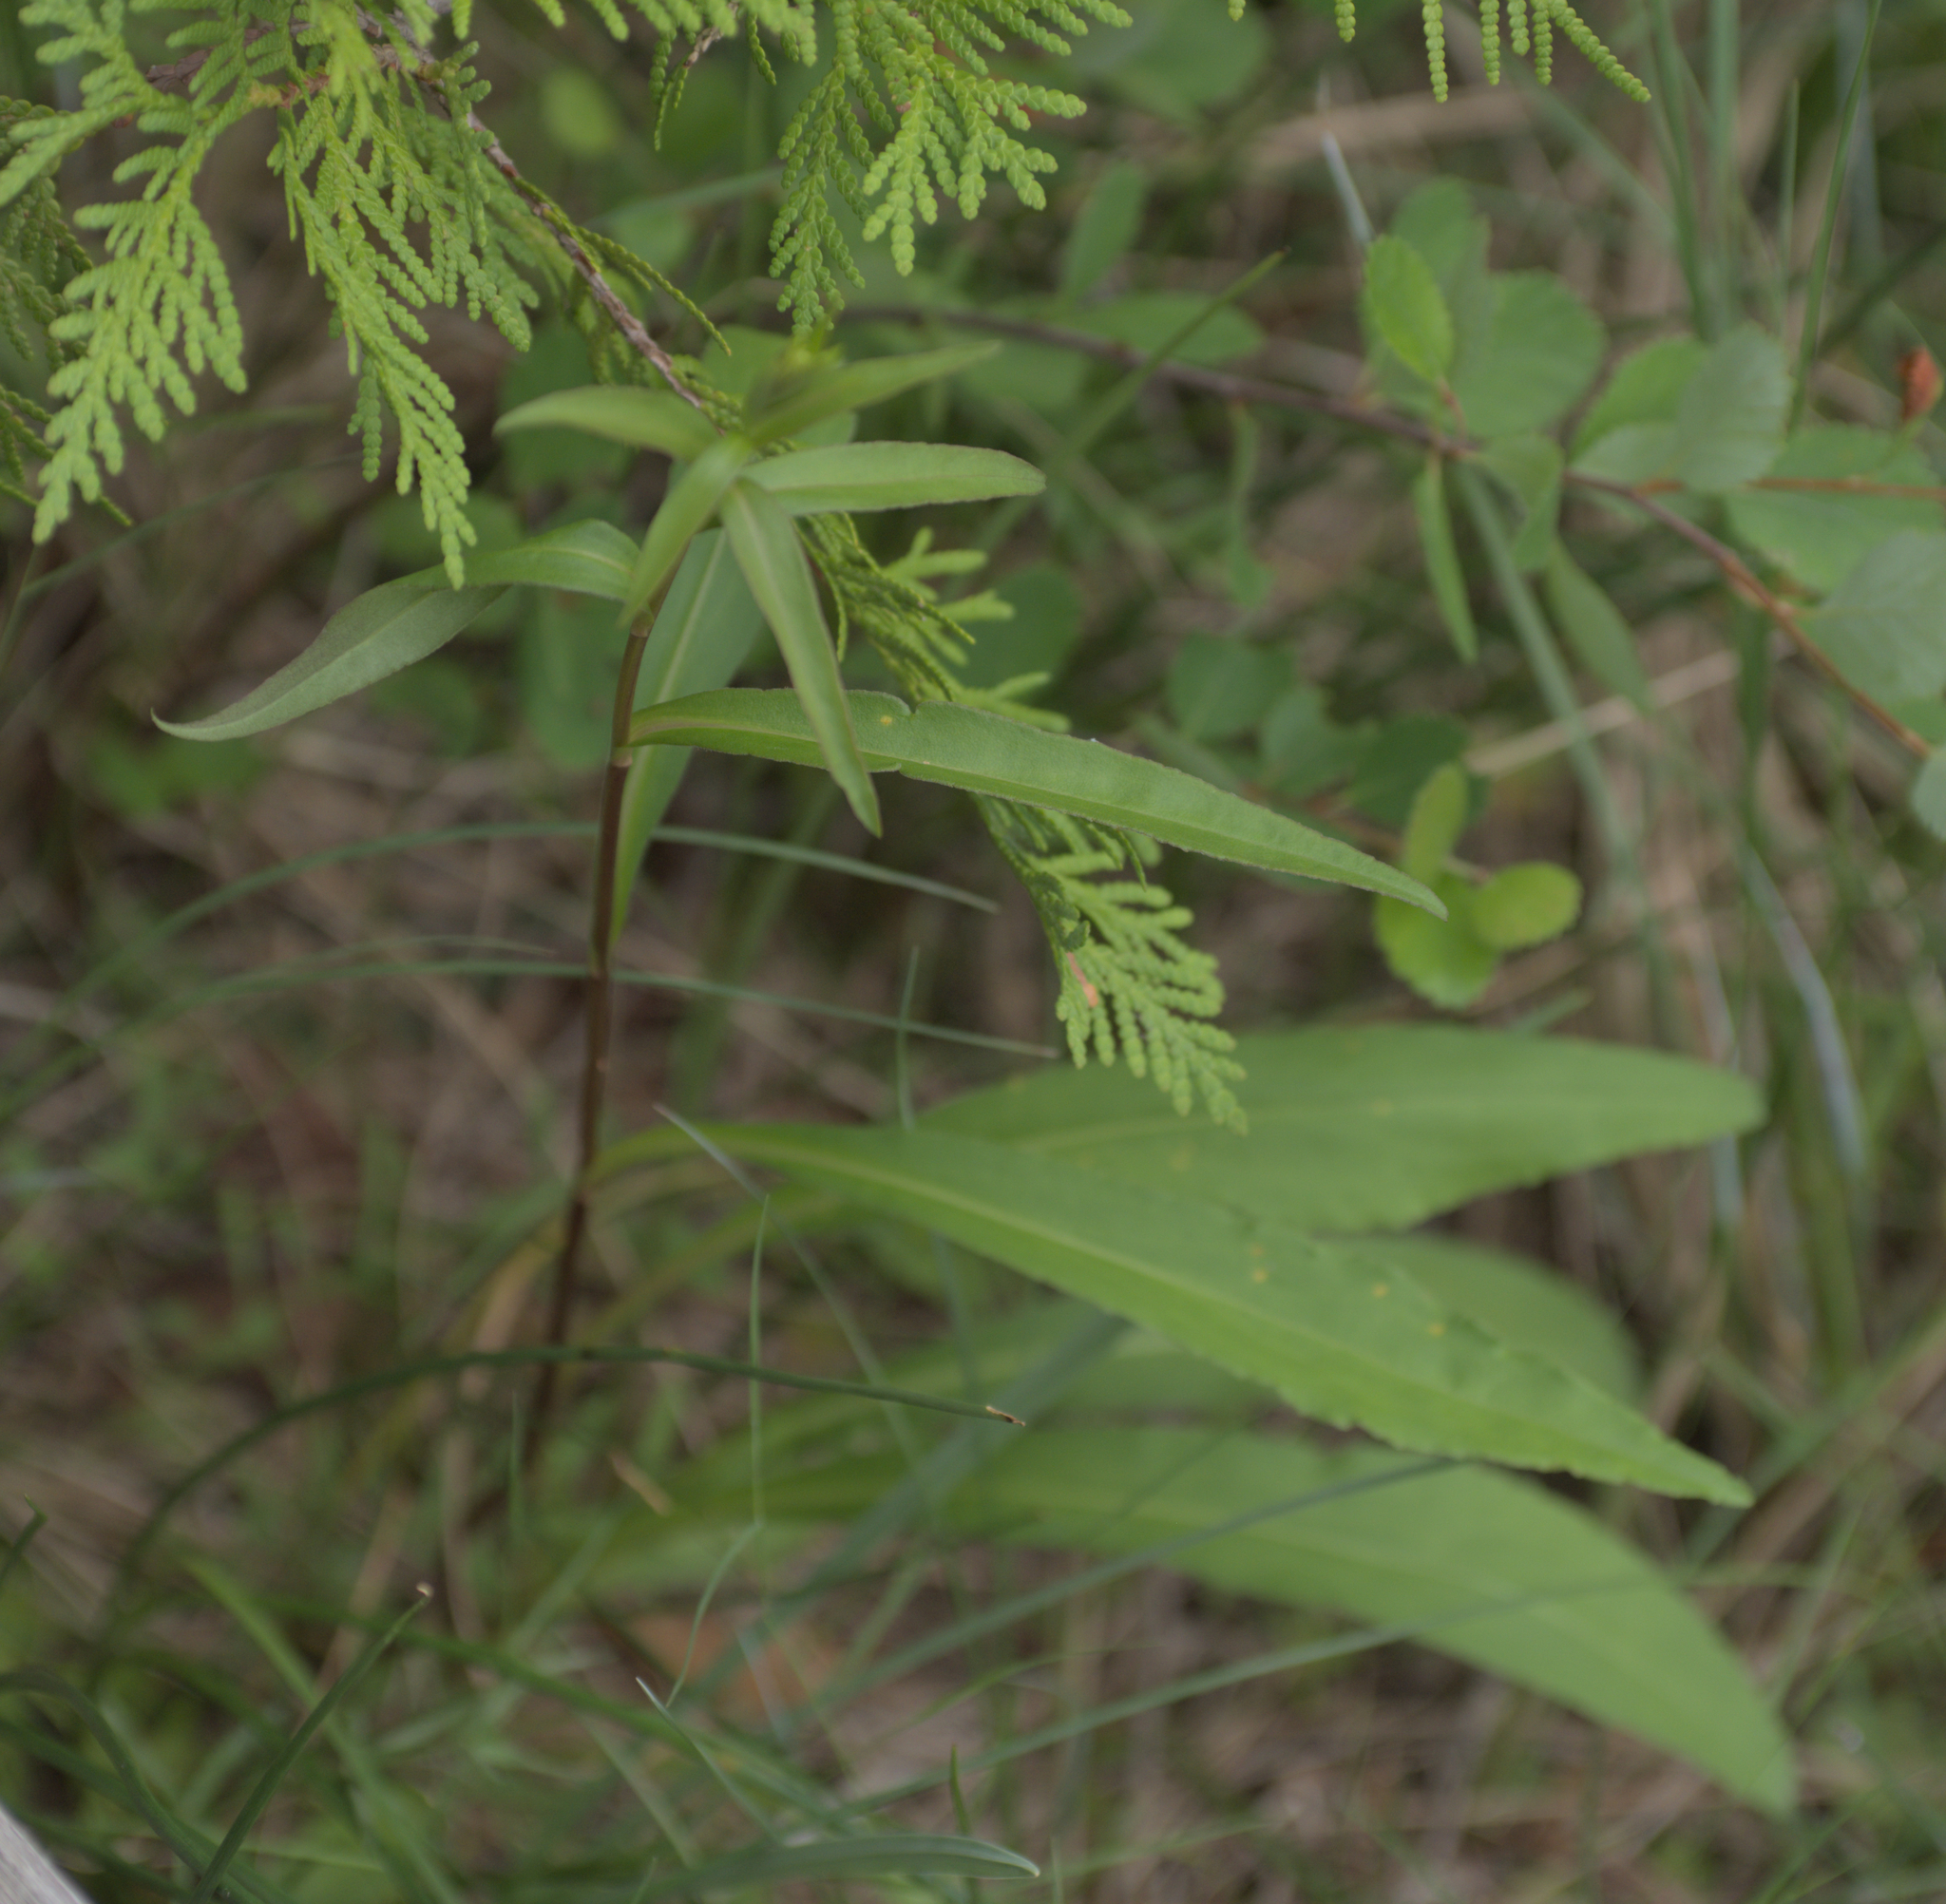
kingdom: Plantae
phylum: Tracheophyta
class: Magnoliopsida
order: Asterales
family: Asteraceae
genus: Solidago
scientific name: Solidago uliginosa
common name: Bog goldenrod
